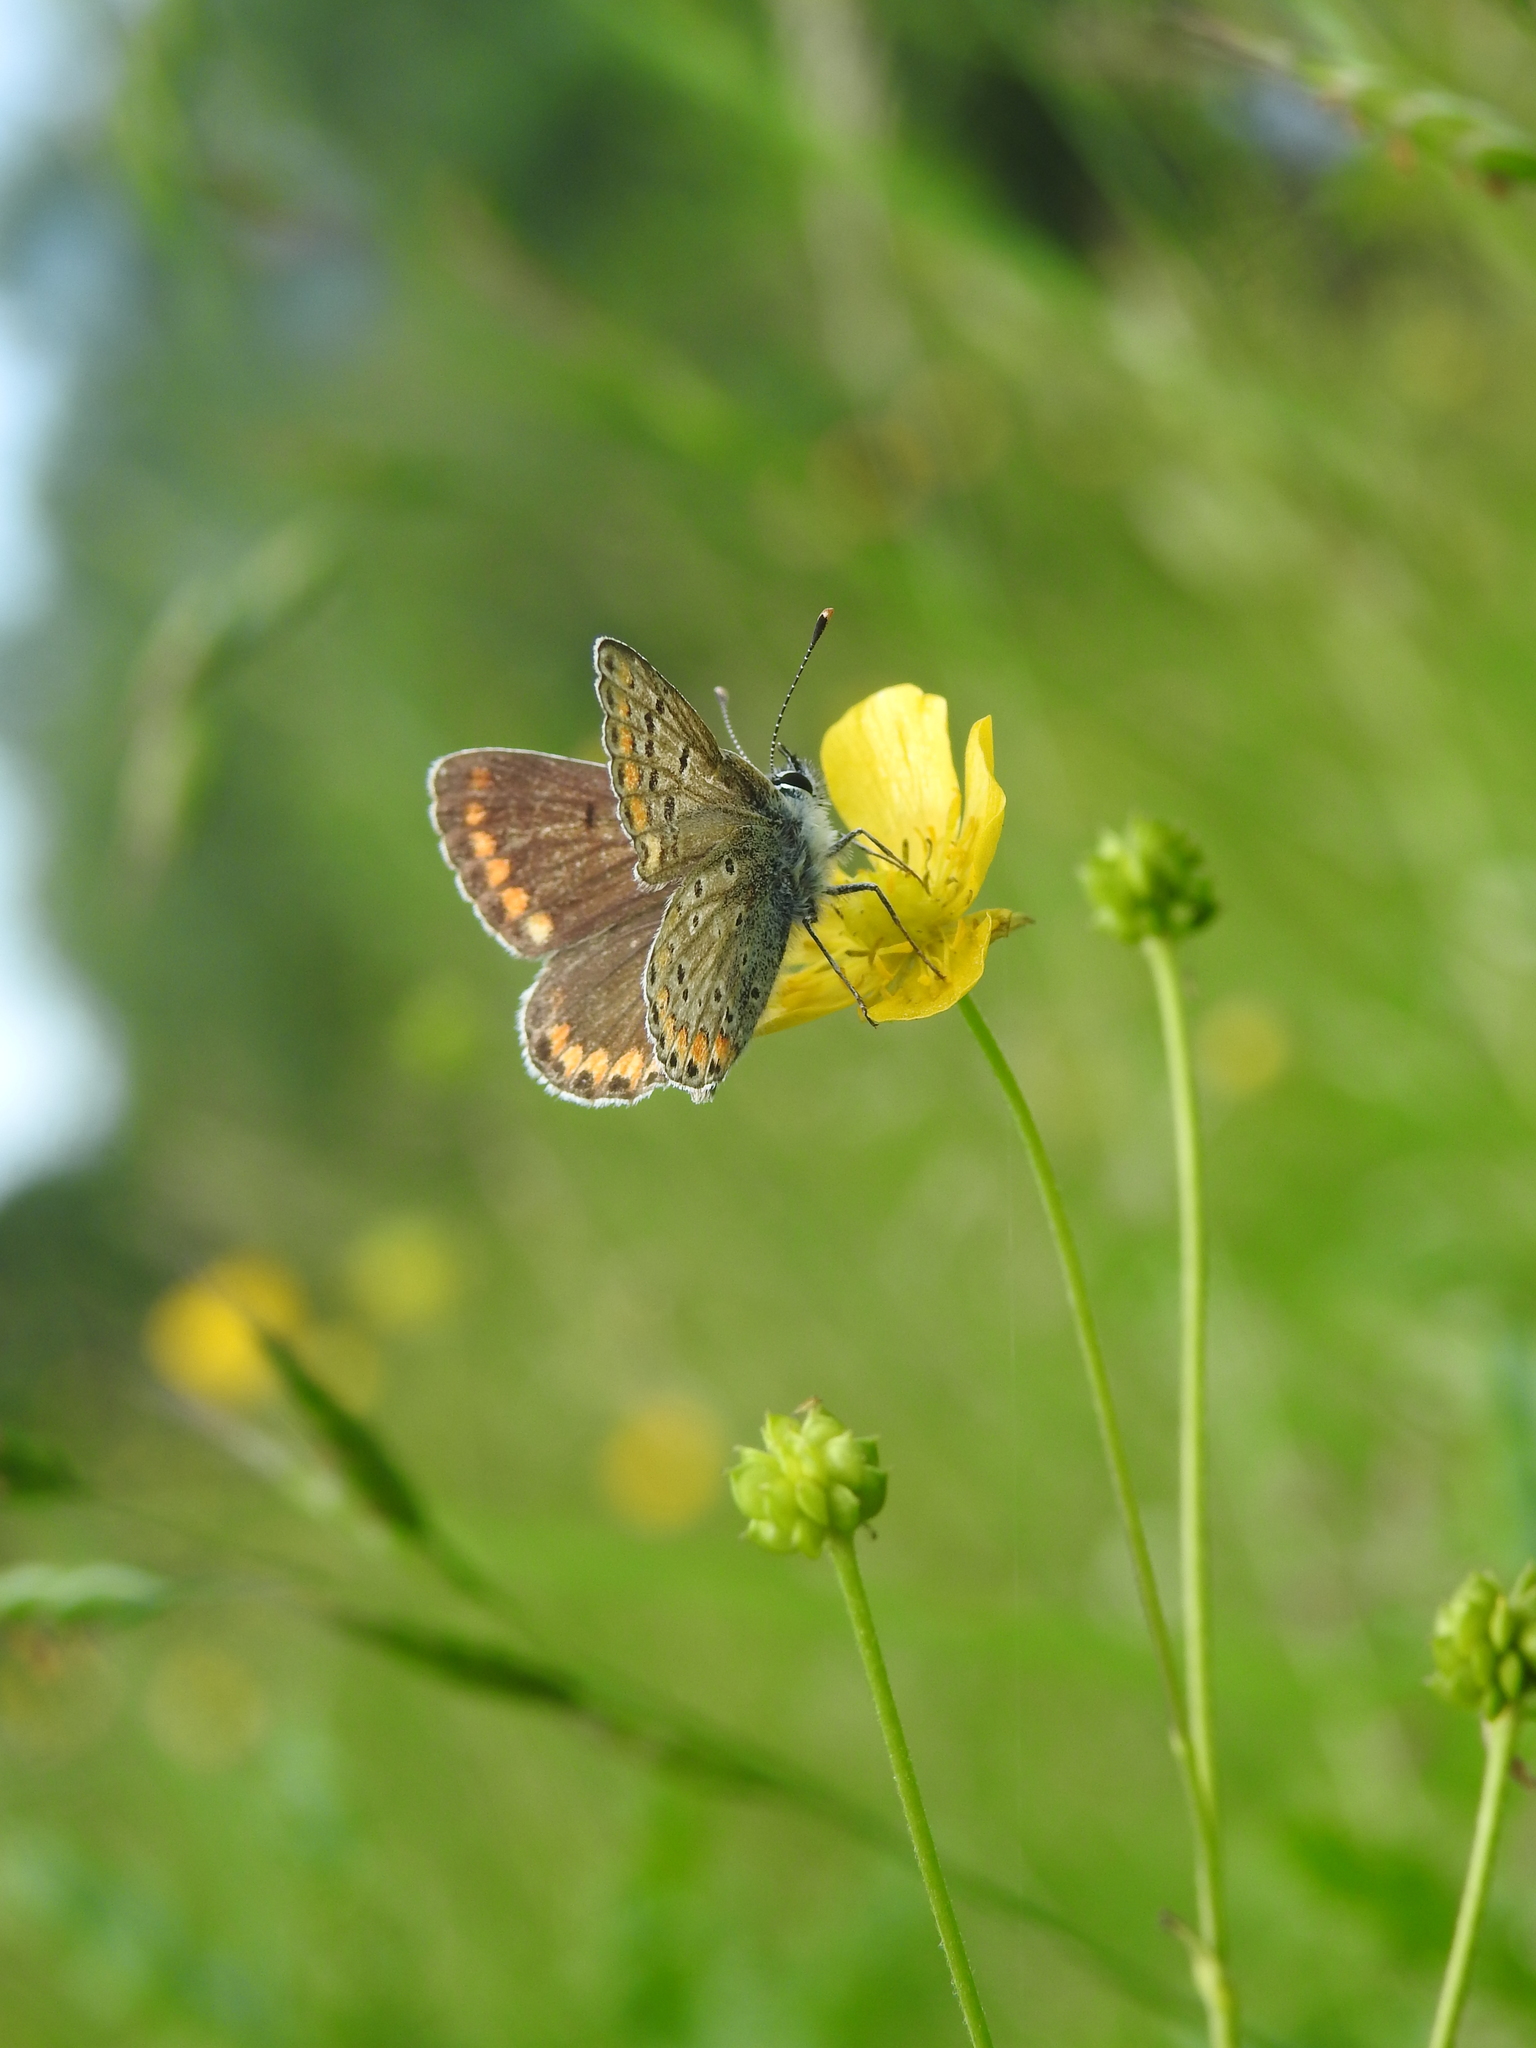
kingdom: Animalia
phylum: Arthropoda
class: Insecta
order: Lepidoptera
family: Lycaenidae
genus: Aricia
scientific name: Aricia agestis
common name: Brown argus
